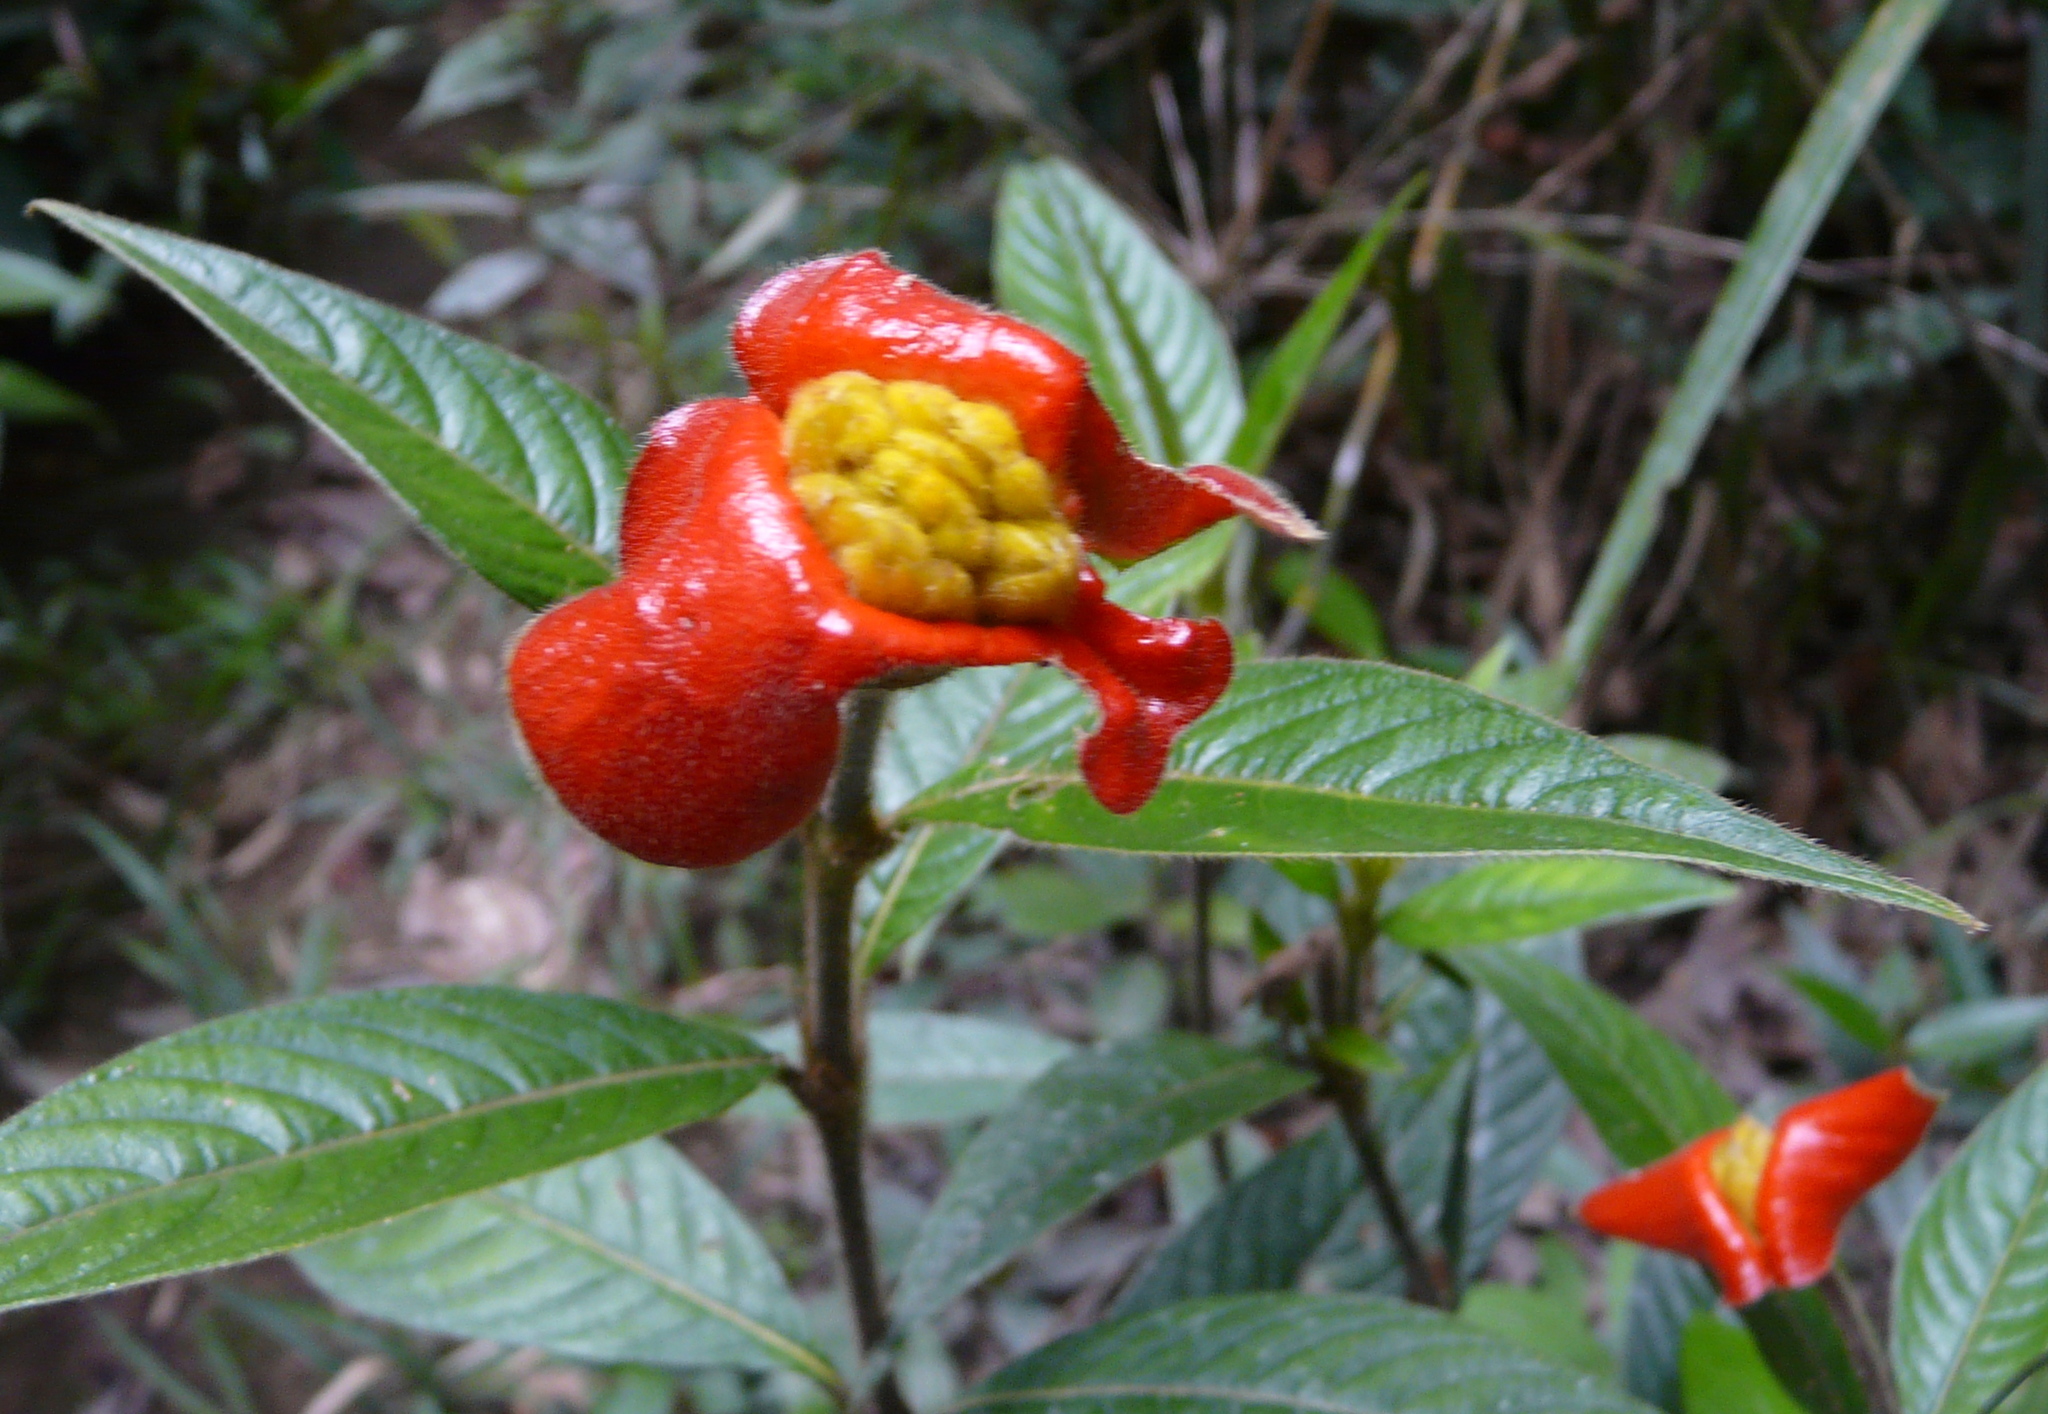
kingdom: Plantae
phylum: Tracheophyta
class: Magnoliopsida
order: Gentianales
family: Rubiaceae
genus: Palicourea
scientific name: Palicourea tomentosa
